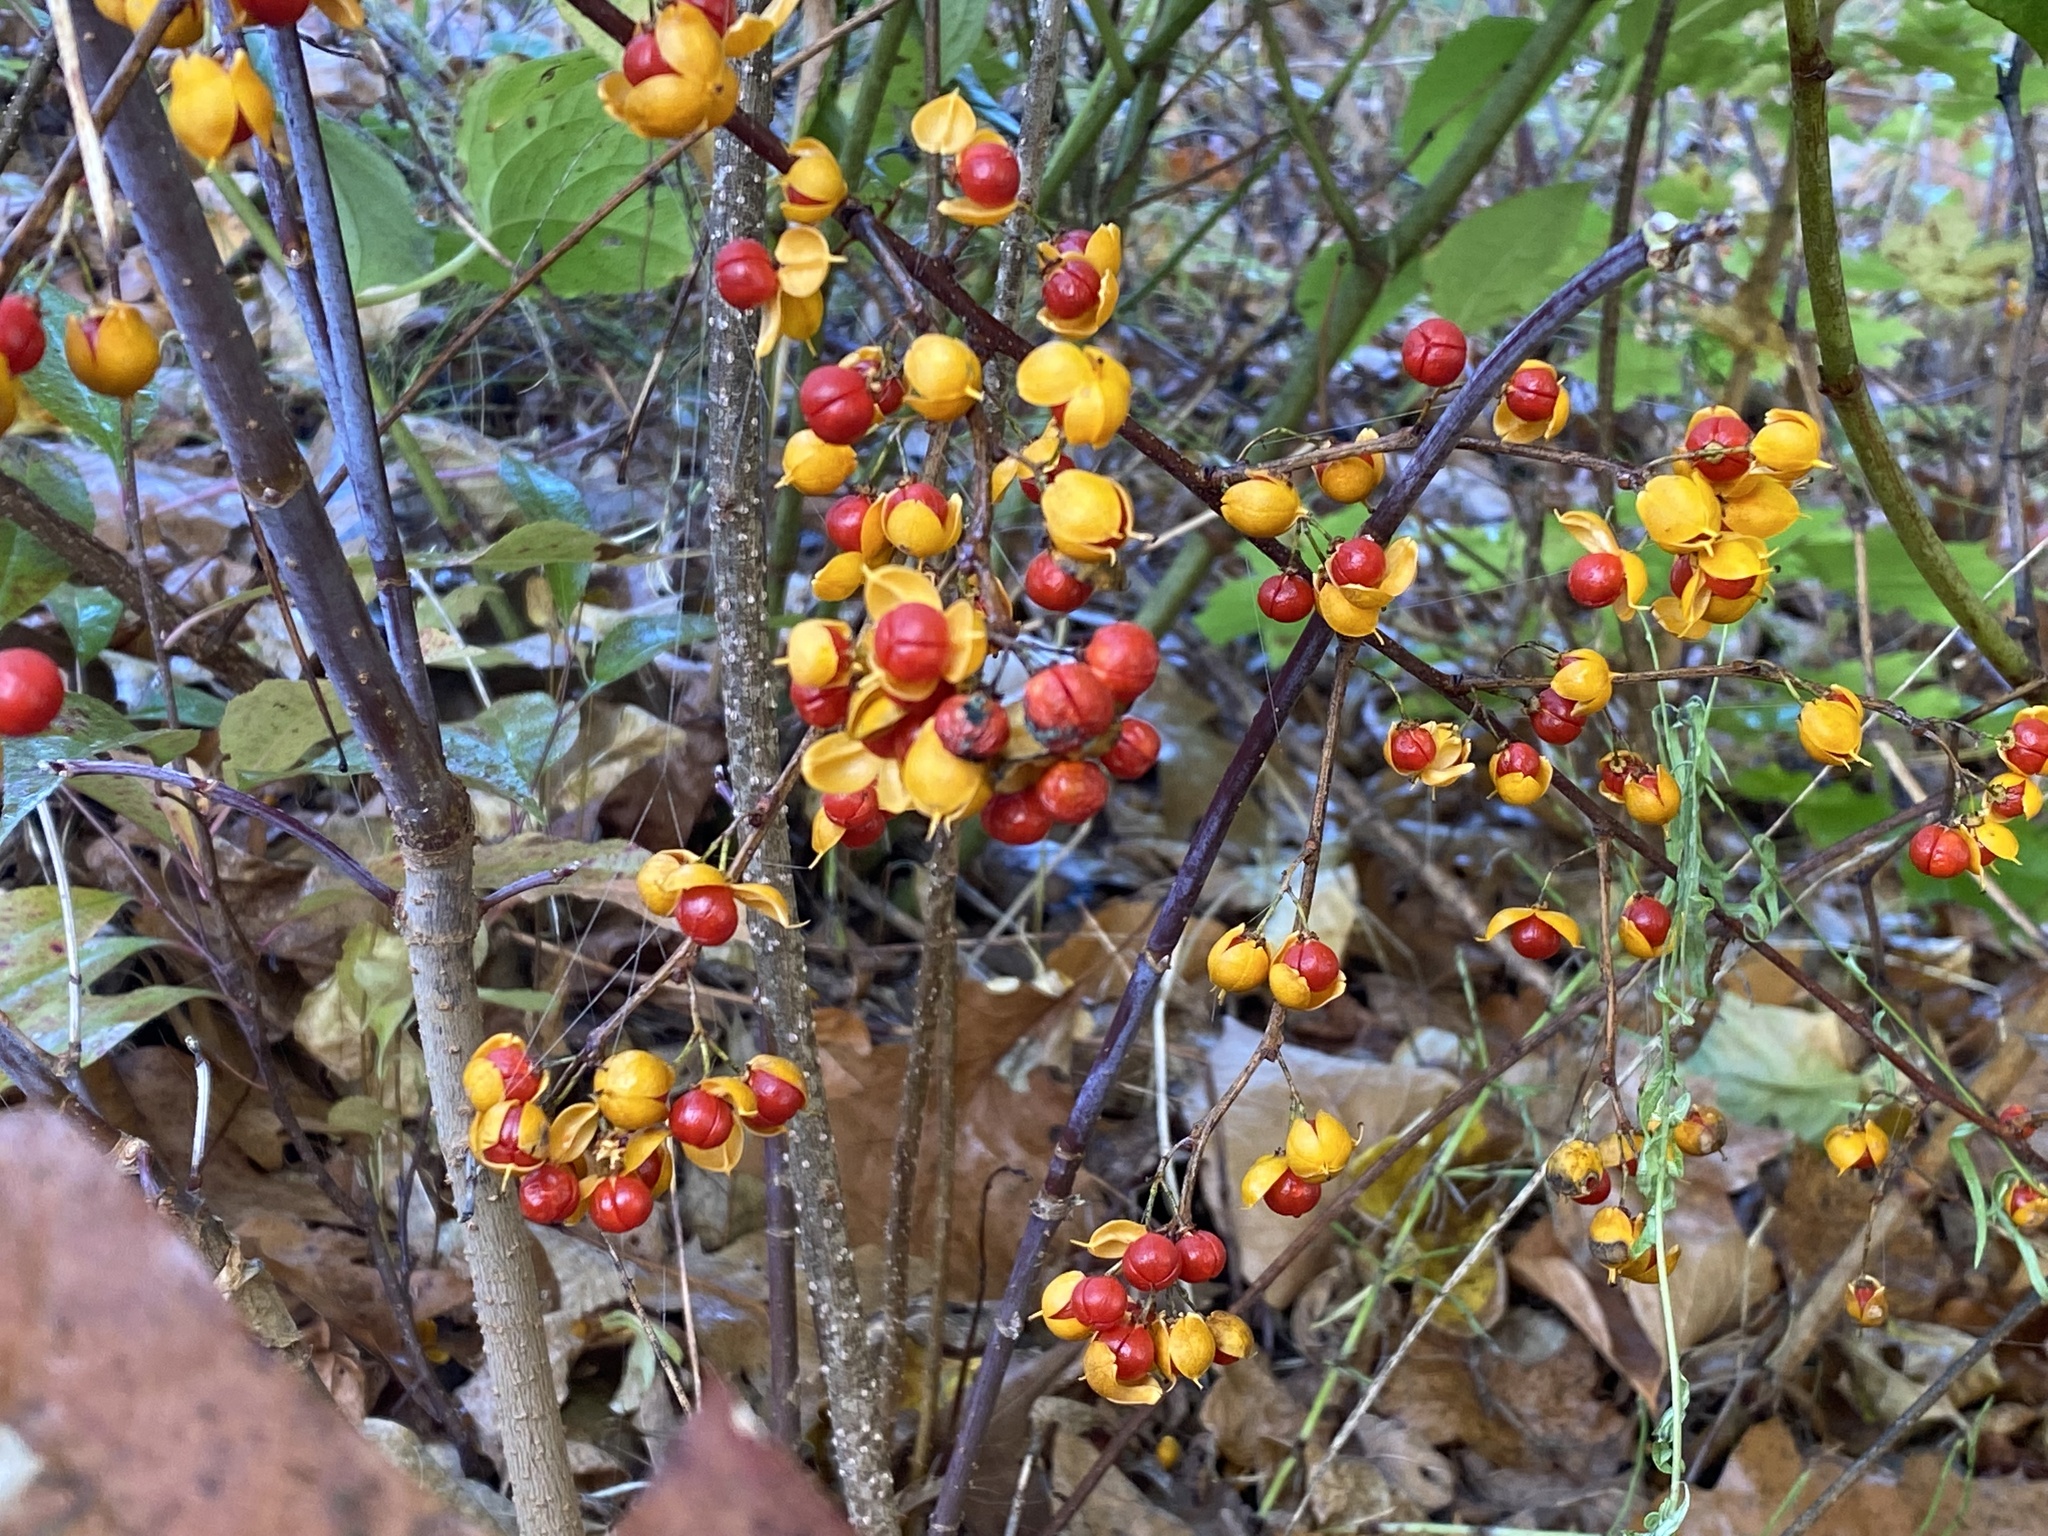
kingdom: Plantae
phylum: Tracheophyta
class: Magnoliopsida
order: Celastrales
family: Celastraceae
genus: Celastrus
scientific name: Celastrus orbiculatus
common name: Oriental bittersweet
